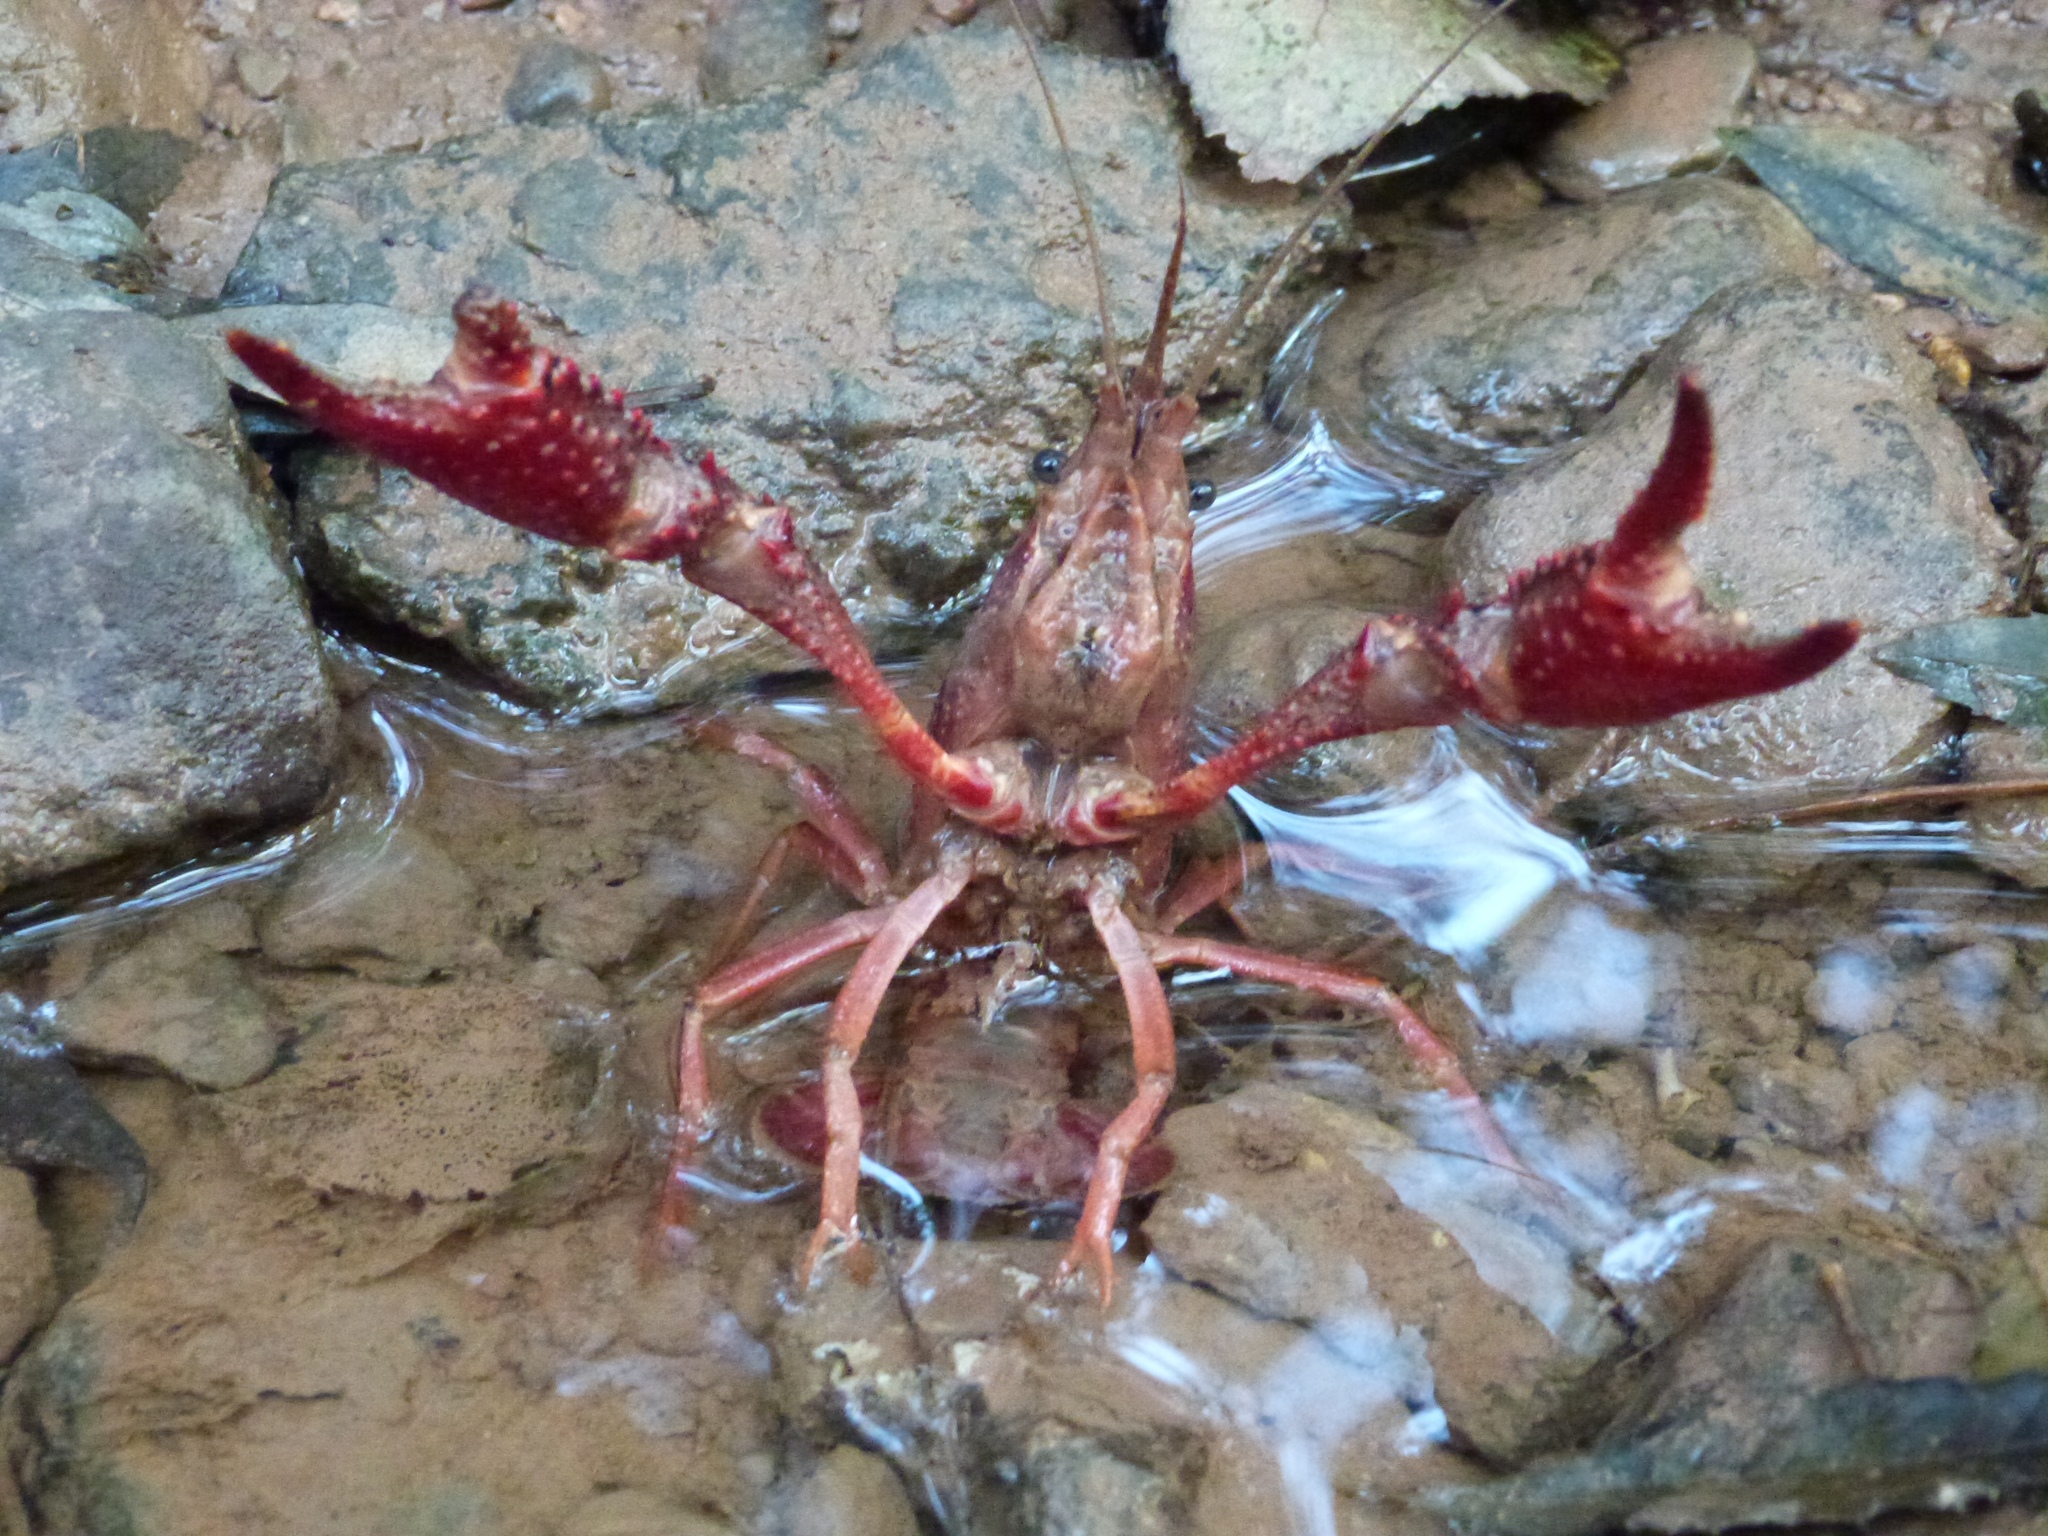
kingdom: Animalia
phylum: Arthropoda
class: Malacostraca
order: Decapoda
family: Cambaridae
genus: Procambarus
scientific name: Procambarus clarkii
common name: Red swamp crayfish
